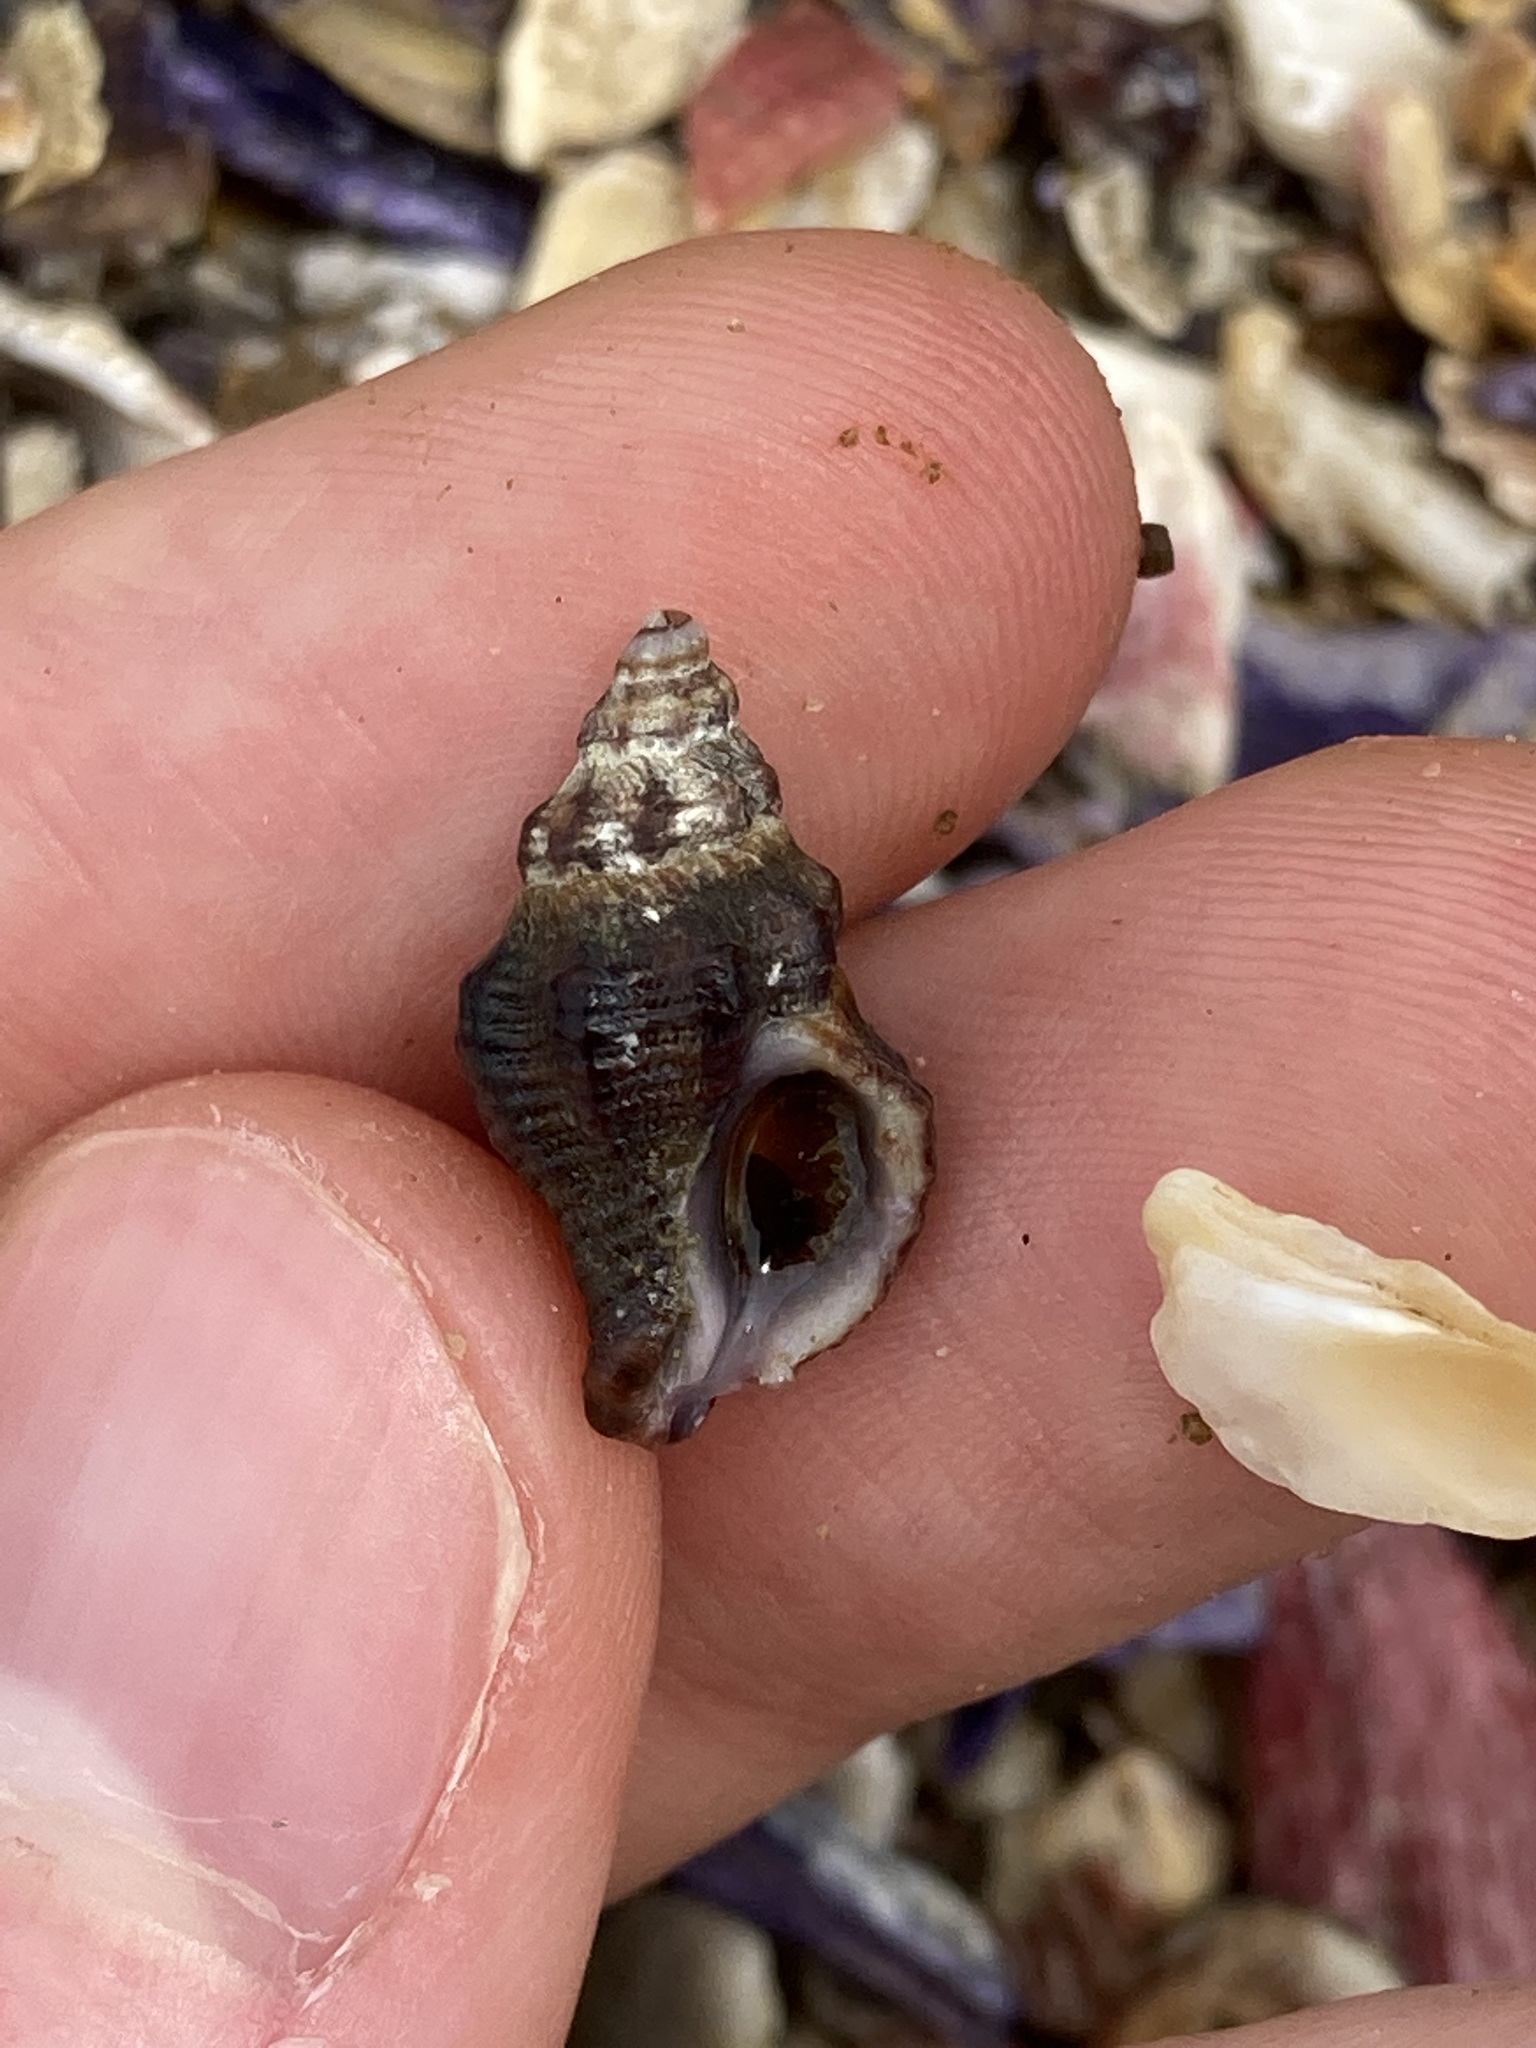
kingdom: Animalia
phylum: Mollusca
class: Gastropoda
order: Neogastropoda
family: Muricidae
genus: Bedeva
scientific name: Bedeva paivae
